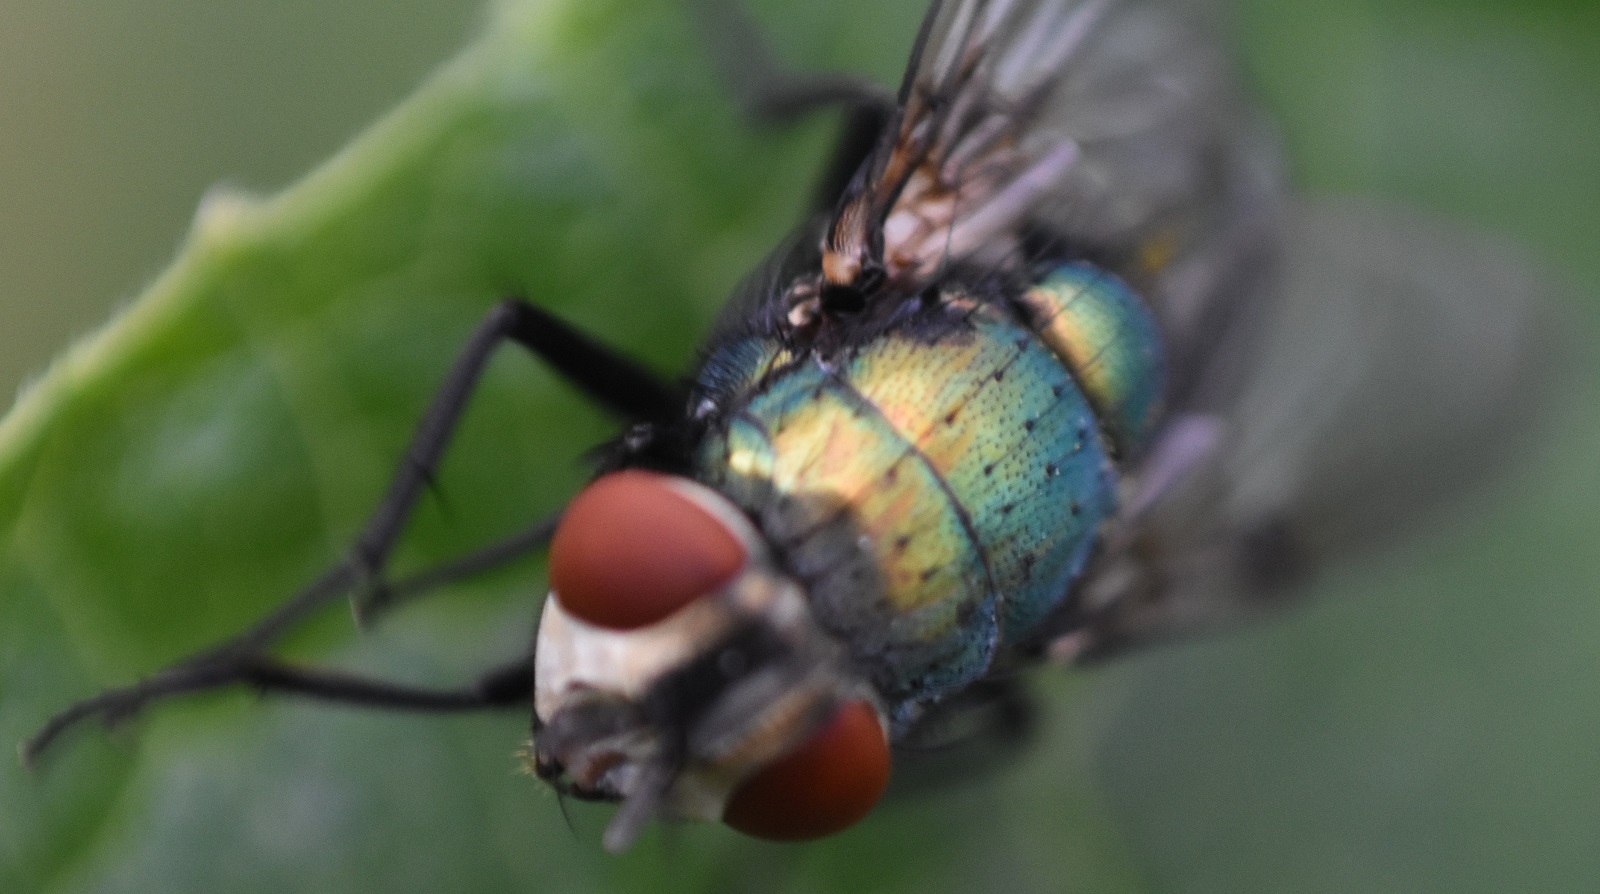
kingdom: Animalia
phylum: Arthropoda
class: Insecta
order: Diptera
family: Calliphoridae
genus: Lucilia
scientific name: Lucilia sericata
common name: Blow fly
